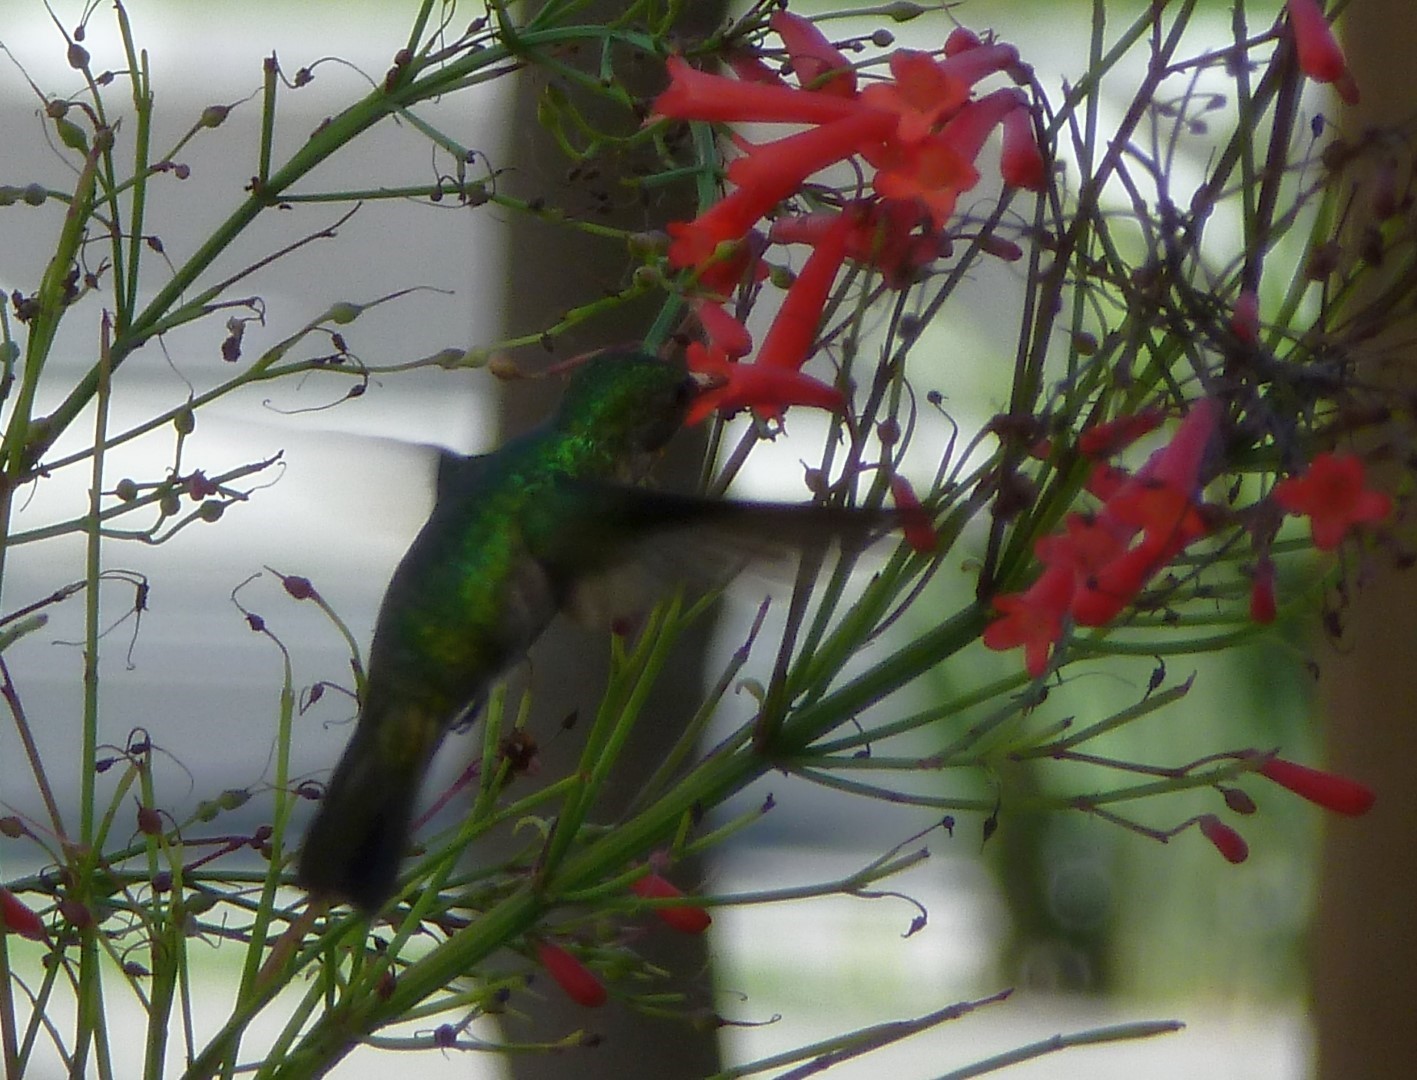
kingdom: Animalia
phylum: Chordata
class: Aves
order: Apodiformes
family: Trochilidae
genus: Orthorhyncus
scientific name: Orthorhyncus cristatus
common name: Antillean crested hummingbird
